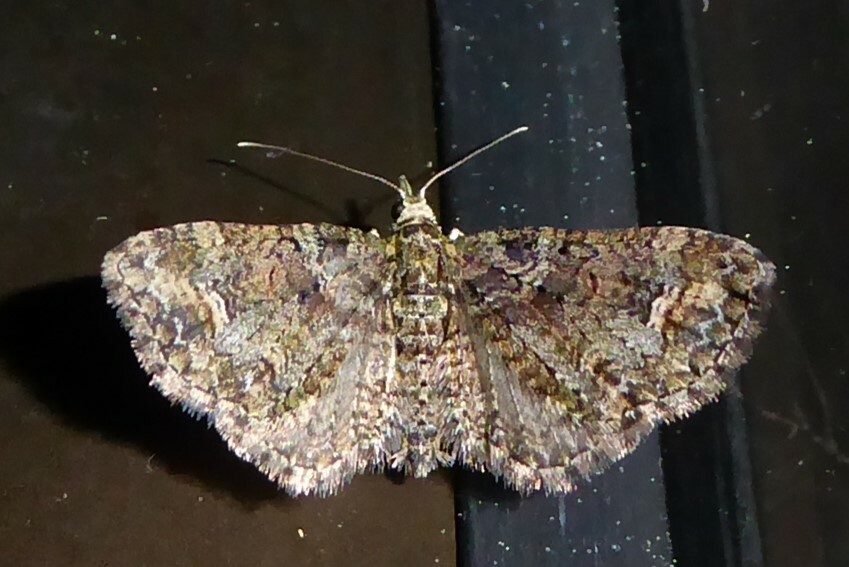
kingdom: Animalia
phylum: Arthropoda
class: Insecta
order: Lepidoptera
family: Geometridae
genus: Idaea
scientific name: Idaea mutanda
